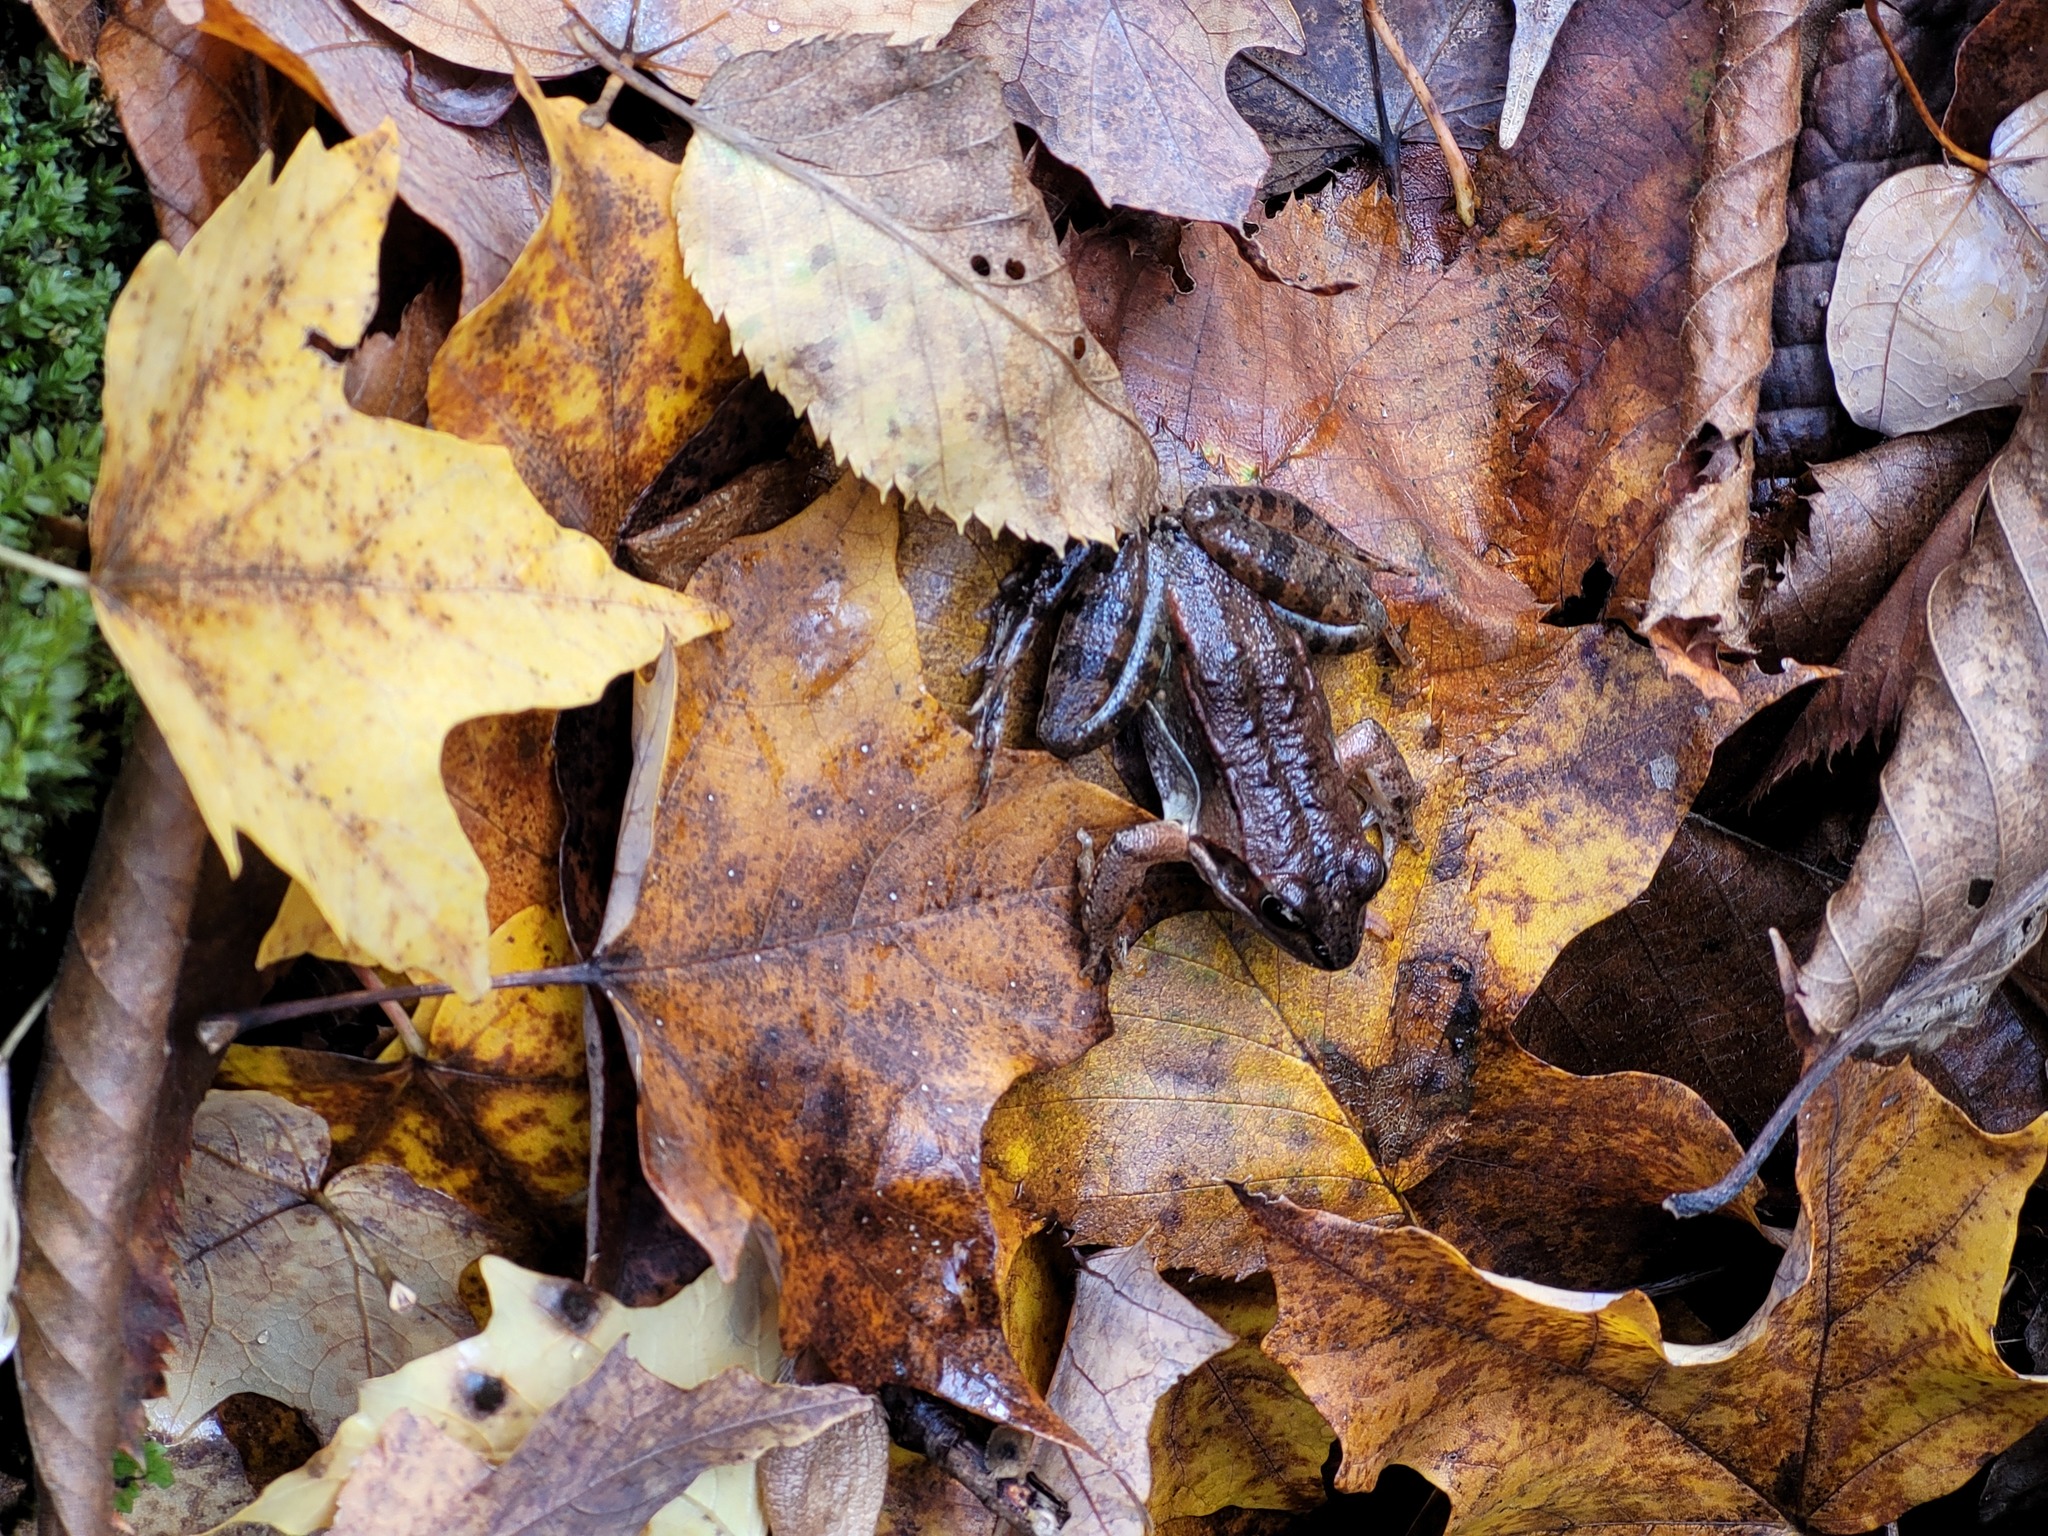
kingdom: Animalia
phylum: Chordata
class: Amphibia
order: Anura
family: Ranidae
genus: Lithobates
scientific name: Lithobates sylvaticus
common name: Wood frog
